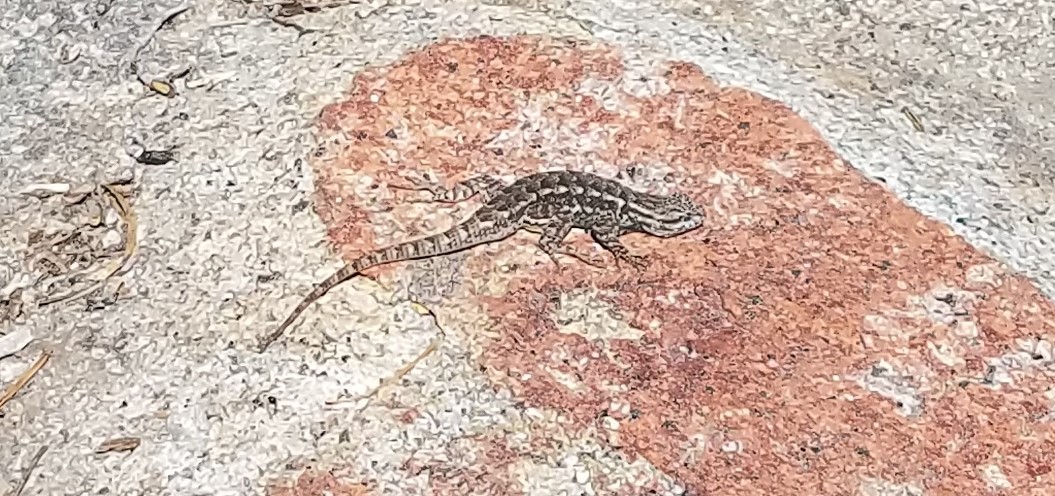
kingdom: Animalia
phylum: Chordata
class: Squamata
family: Phrynosomatidae
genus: Sceloporus
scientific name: Sceloporus occidentalis
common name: Western fence lizard
